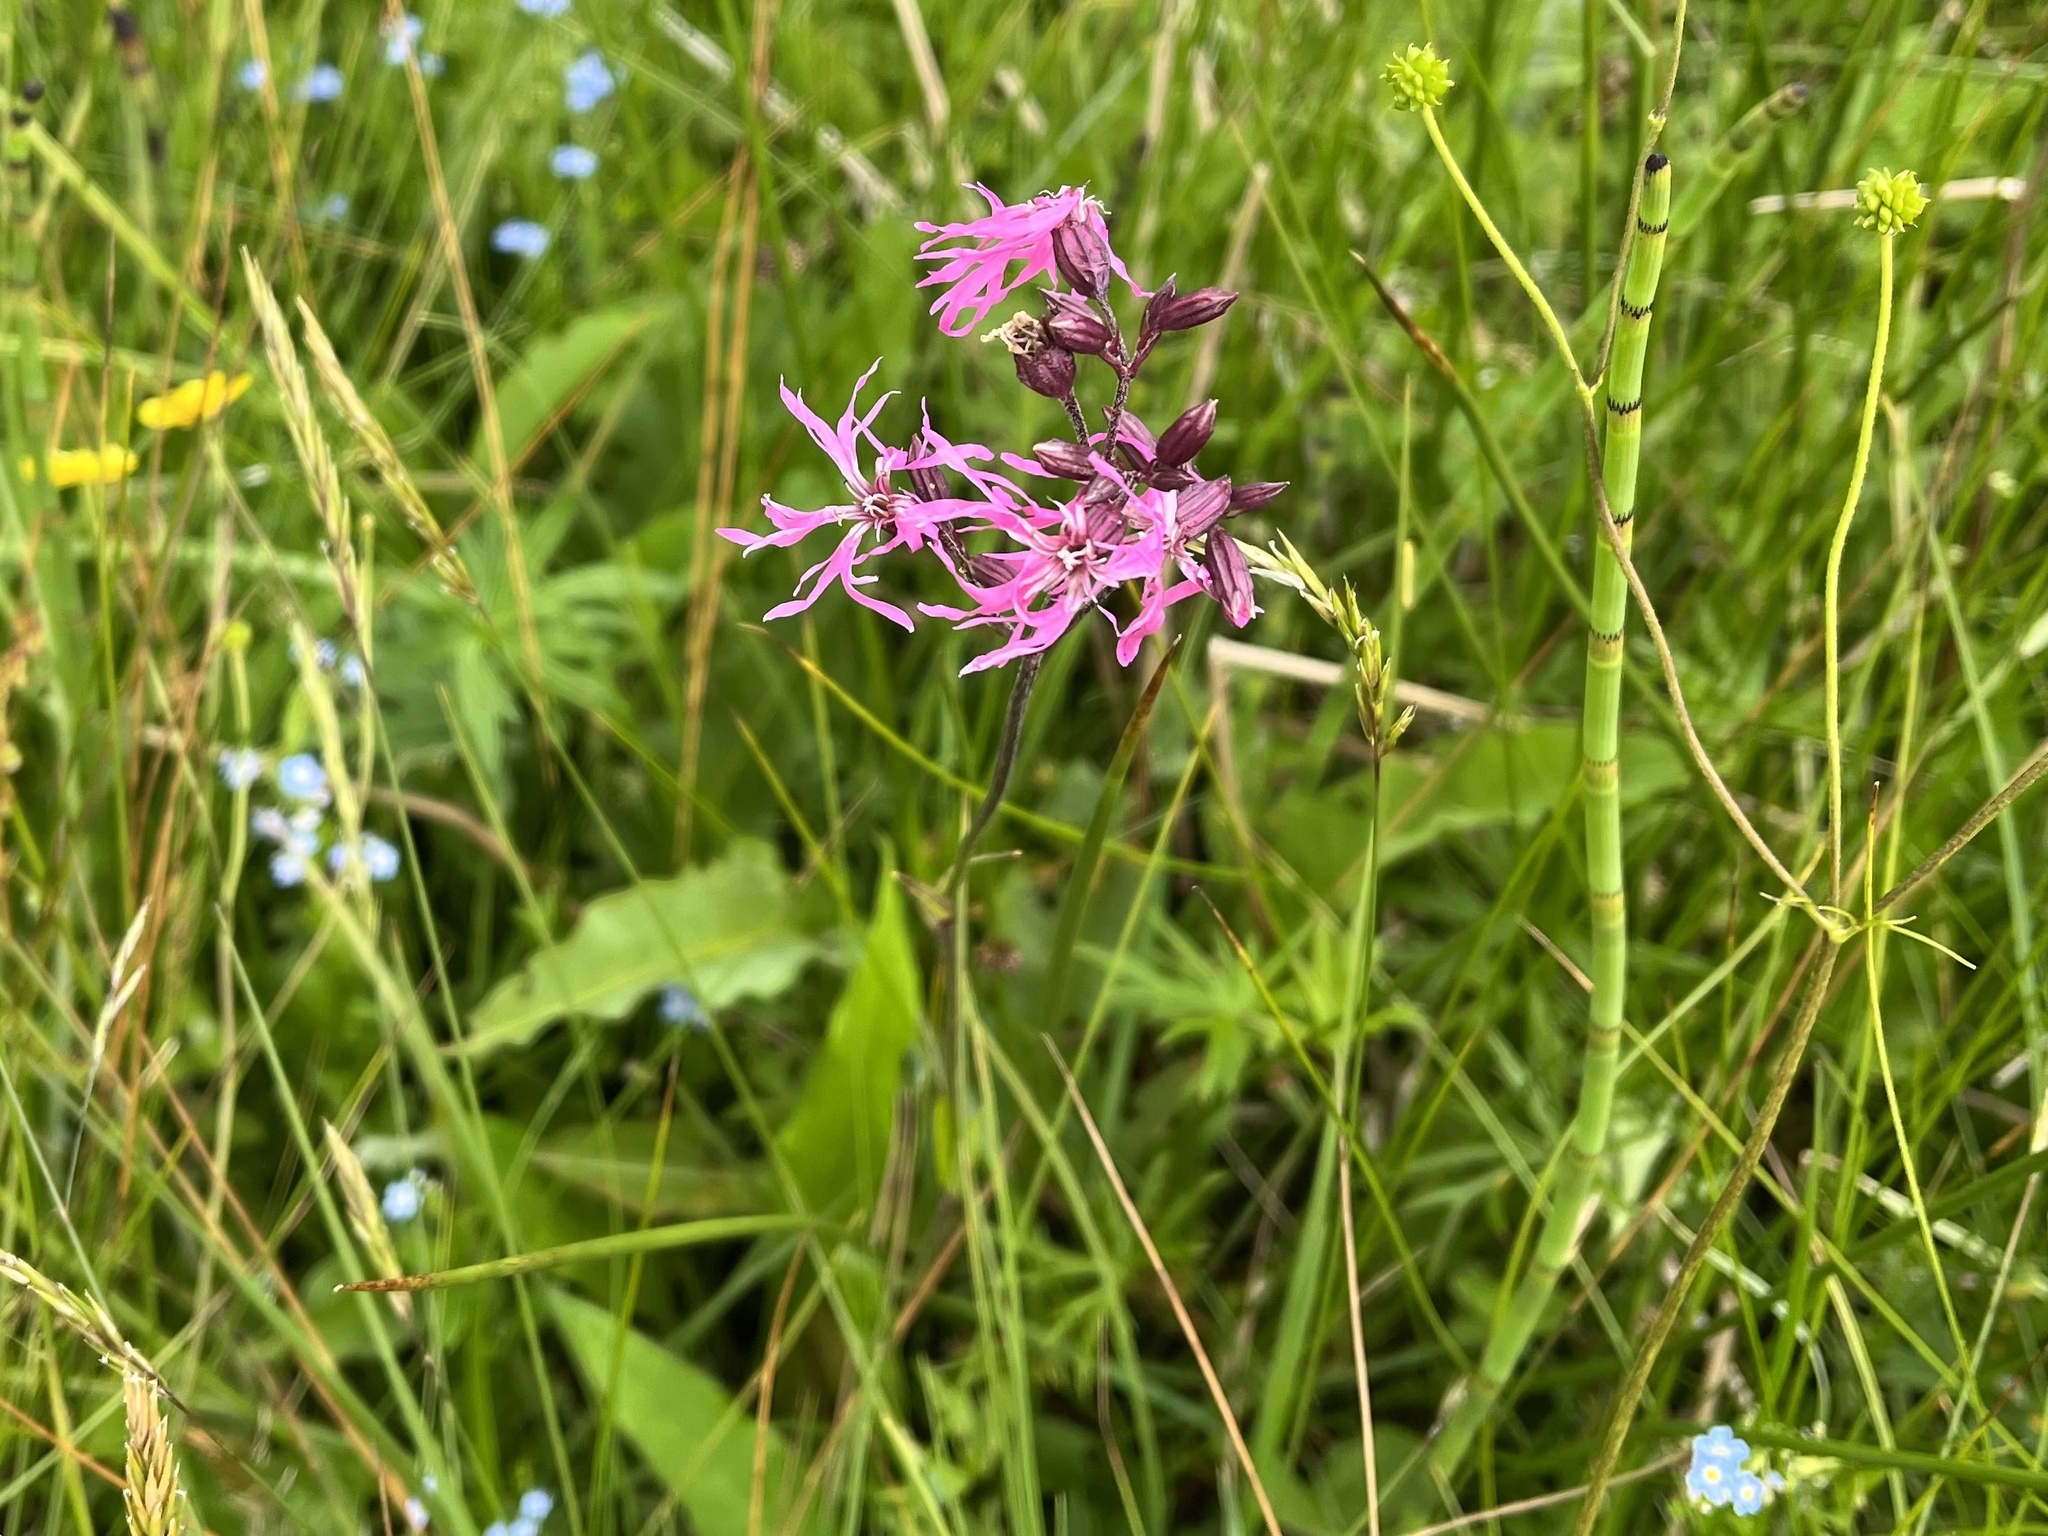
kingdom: Plantae
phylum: Tracheophyta
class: Magnoliopsida
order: Caryophyllales
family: Caryophyllaceae
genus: Silene
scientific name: Silene flos-cuculi
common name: Ragged-robin
